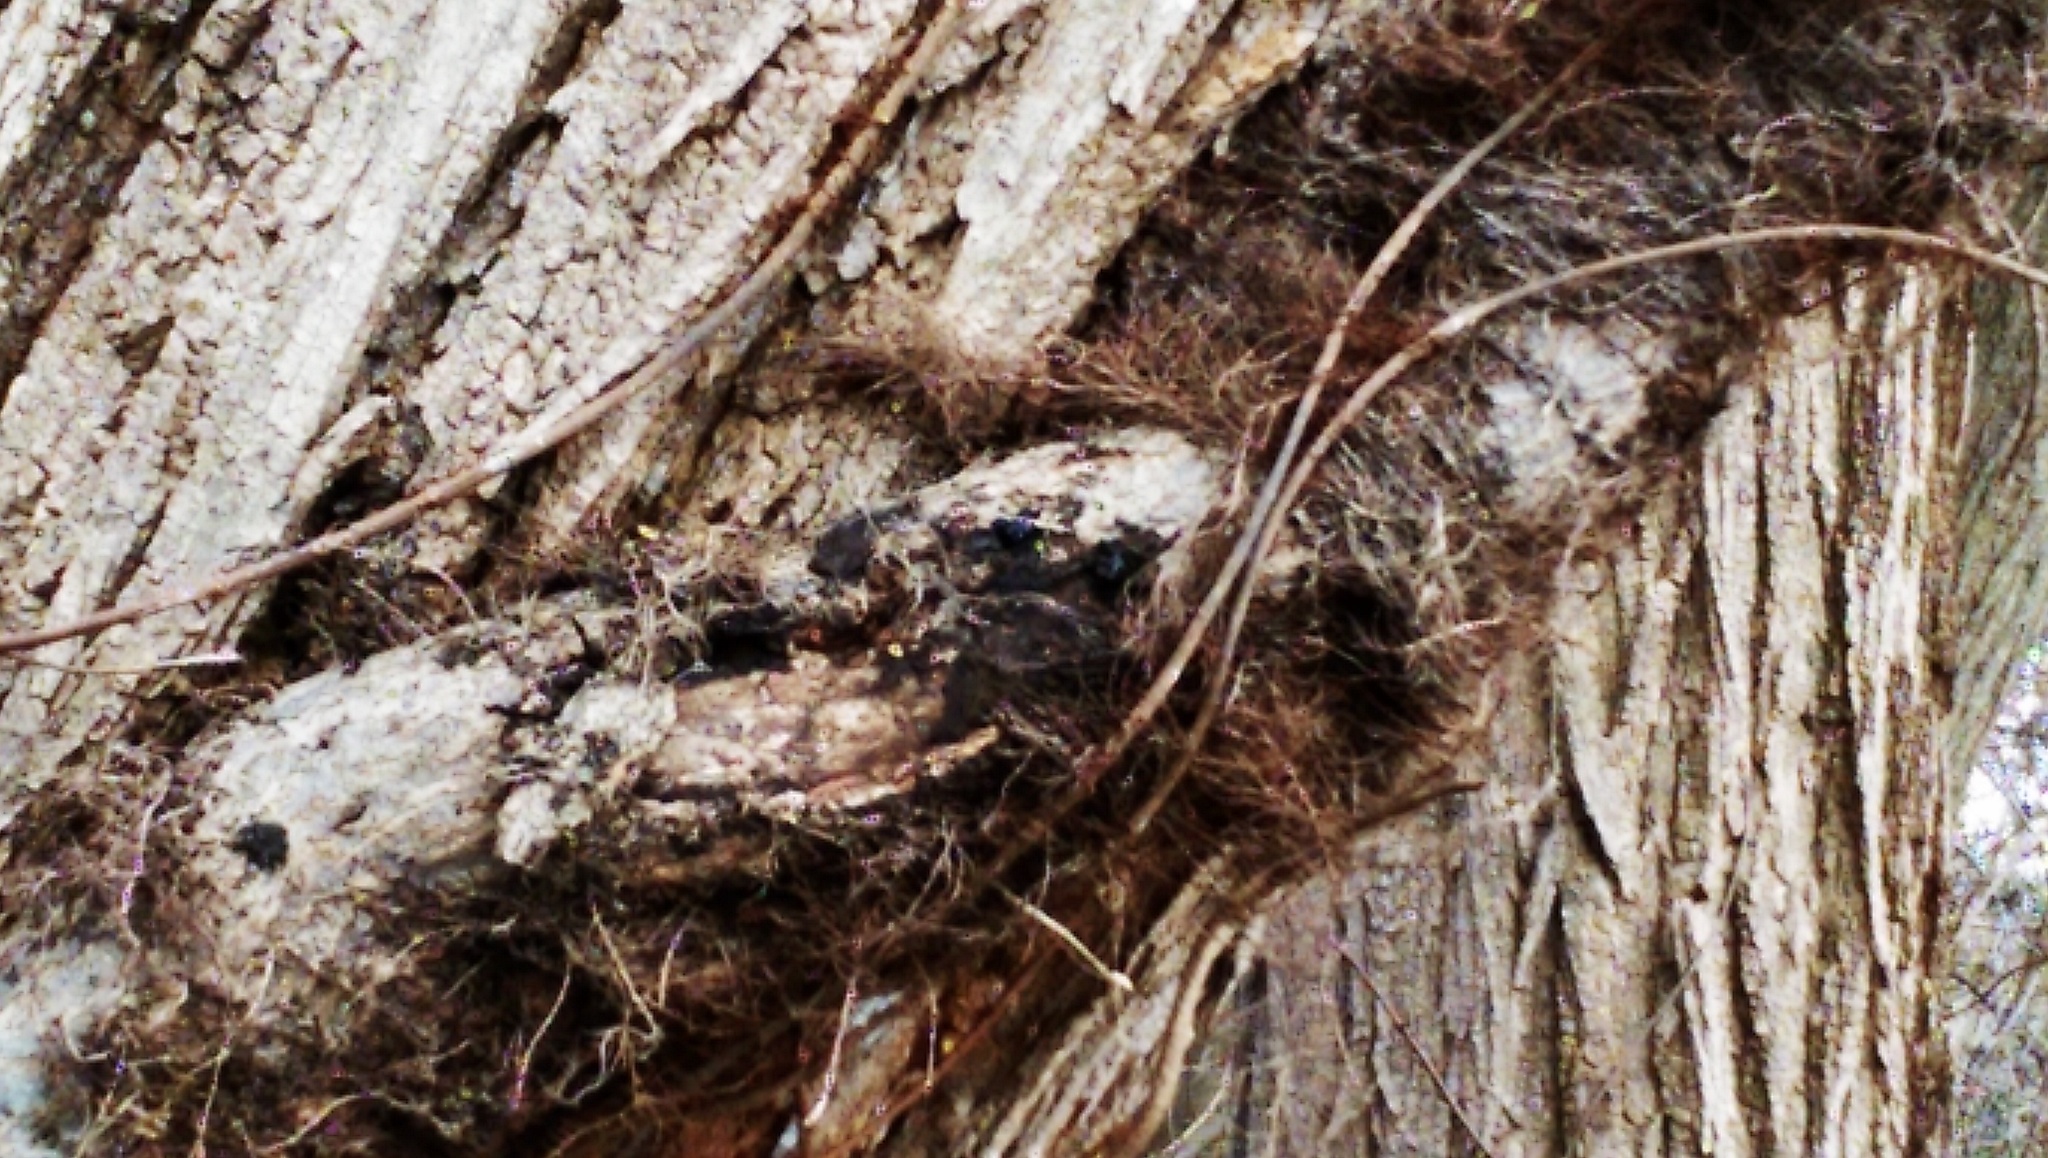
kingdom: Plantae
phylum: Tracheophyta
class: Magnoliopsida
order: Sapindales
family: Anacardiaceae
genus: Toxicodendron
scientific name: Toxicodendron radicans
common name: Poison ivy
